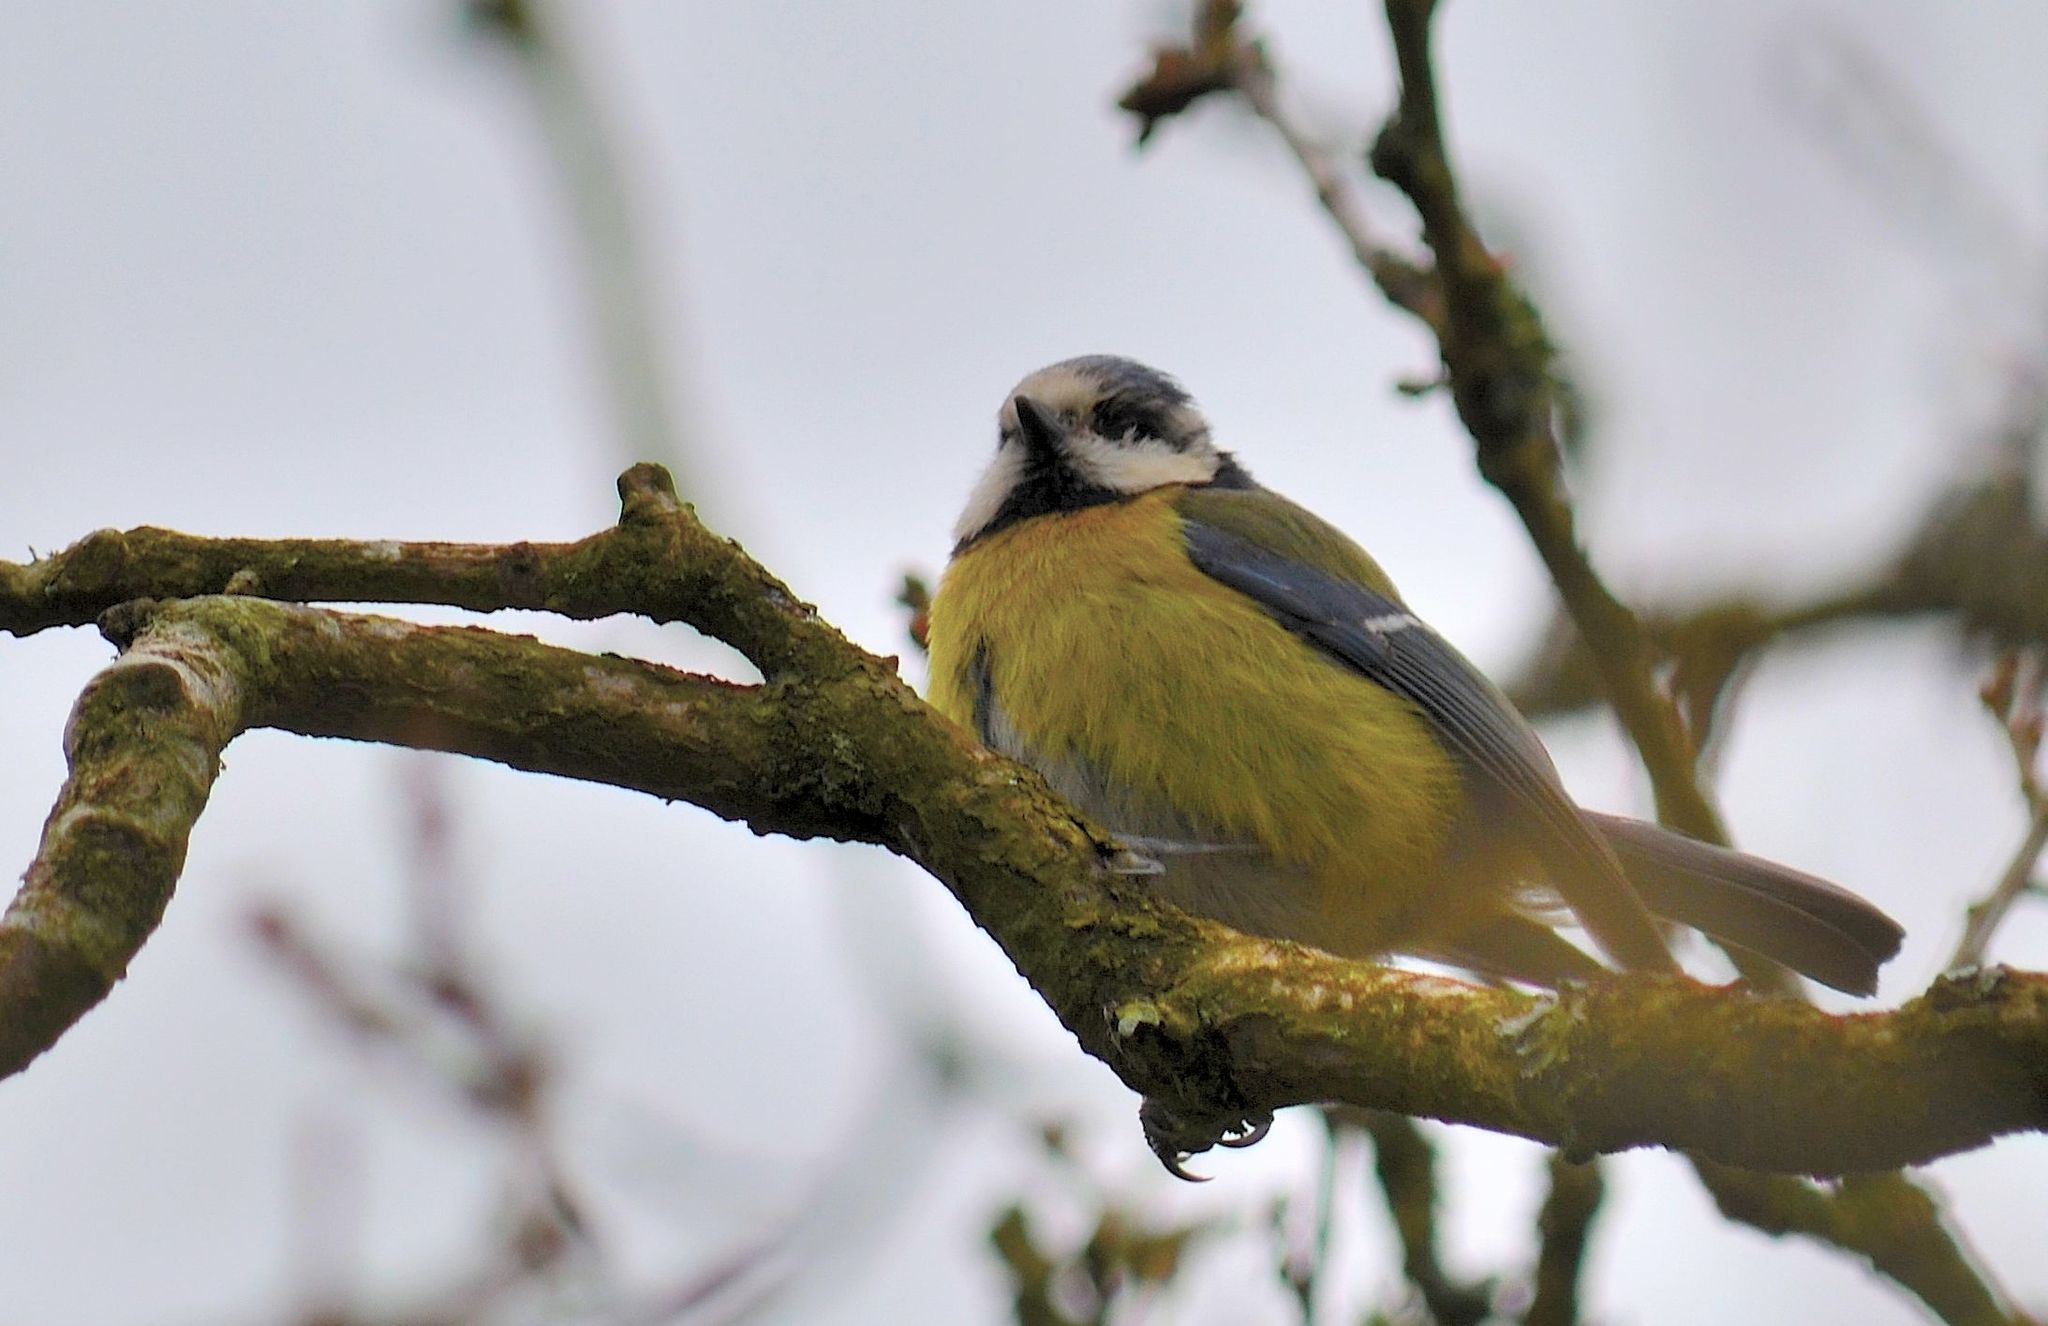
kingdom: Animalia
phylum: Chordata
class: Aves
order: Passeriformes
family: Paridae
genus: Cyanistes
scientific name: Cyanistes caeruleus
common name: Eurasian blue tit
